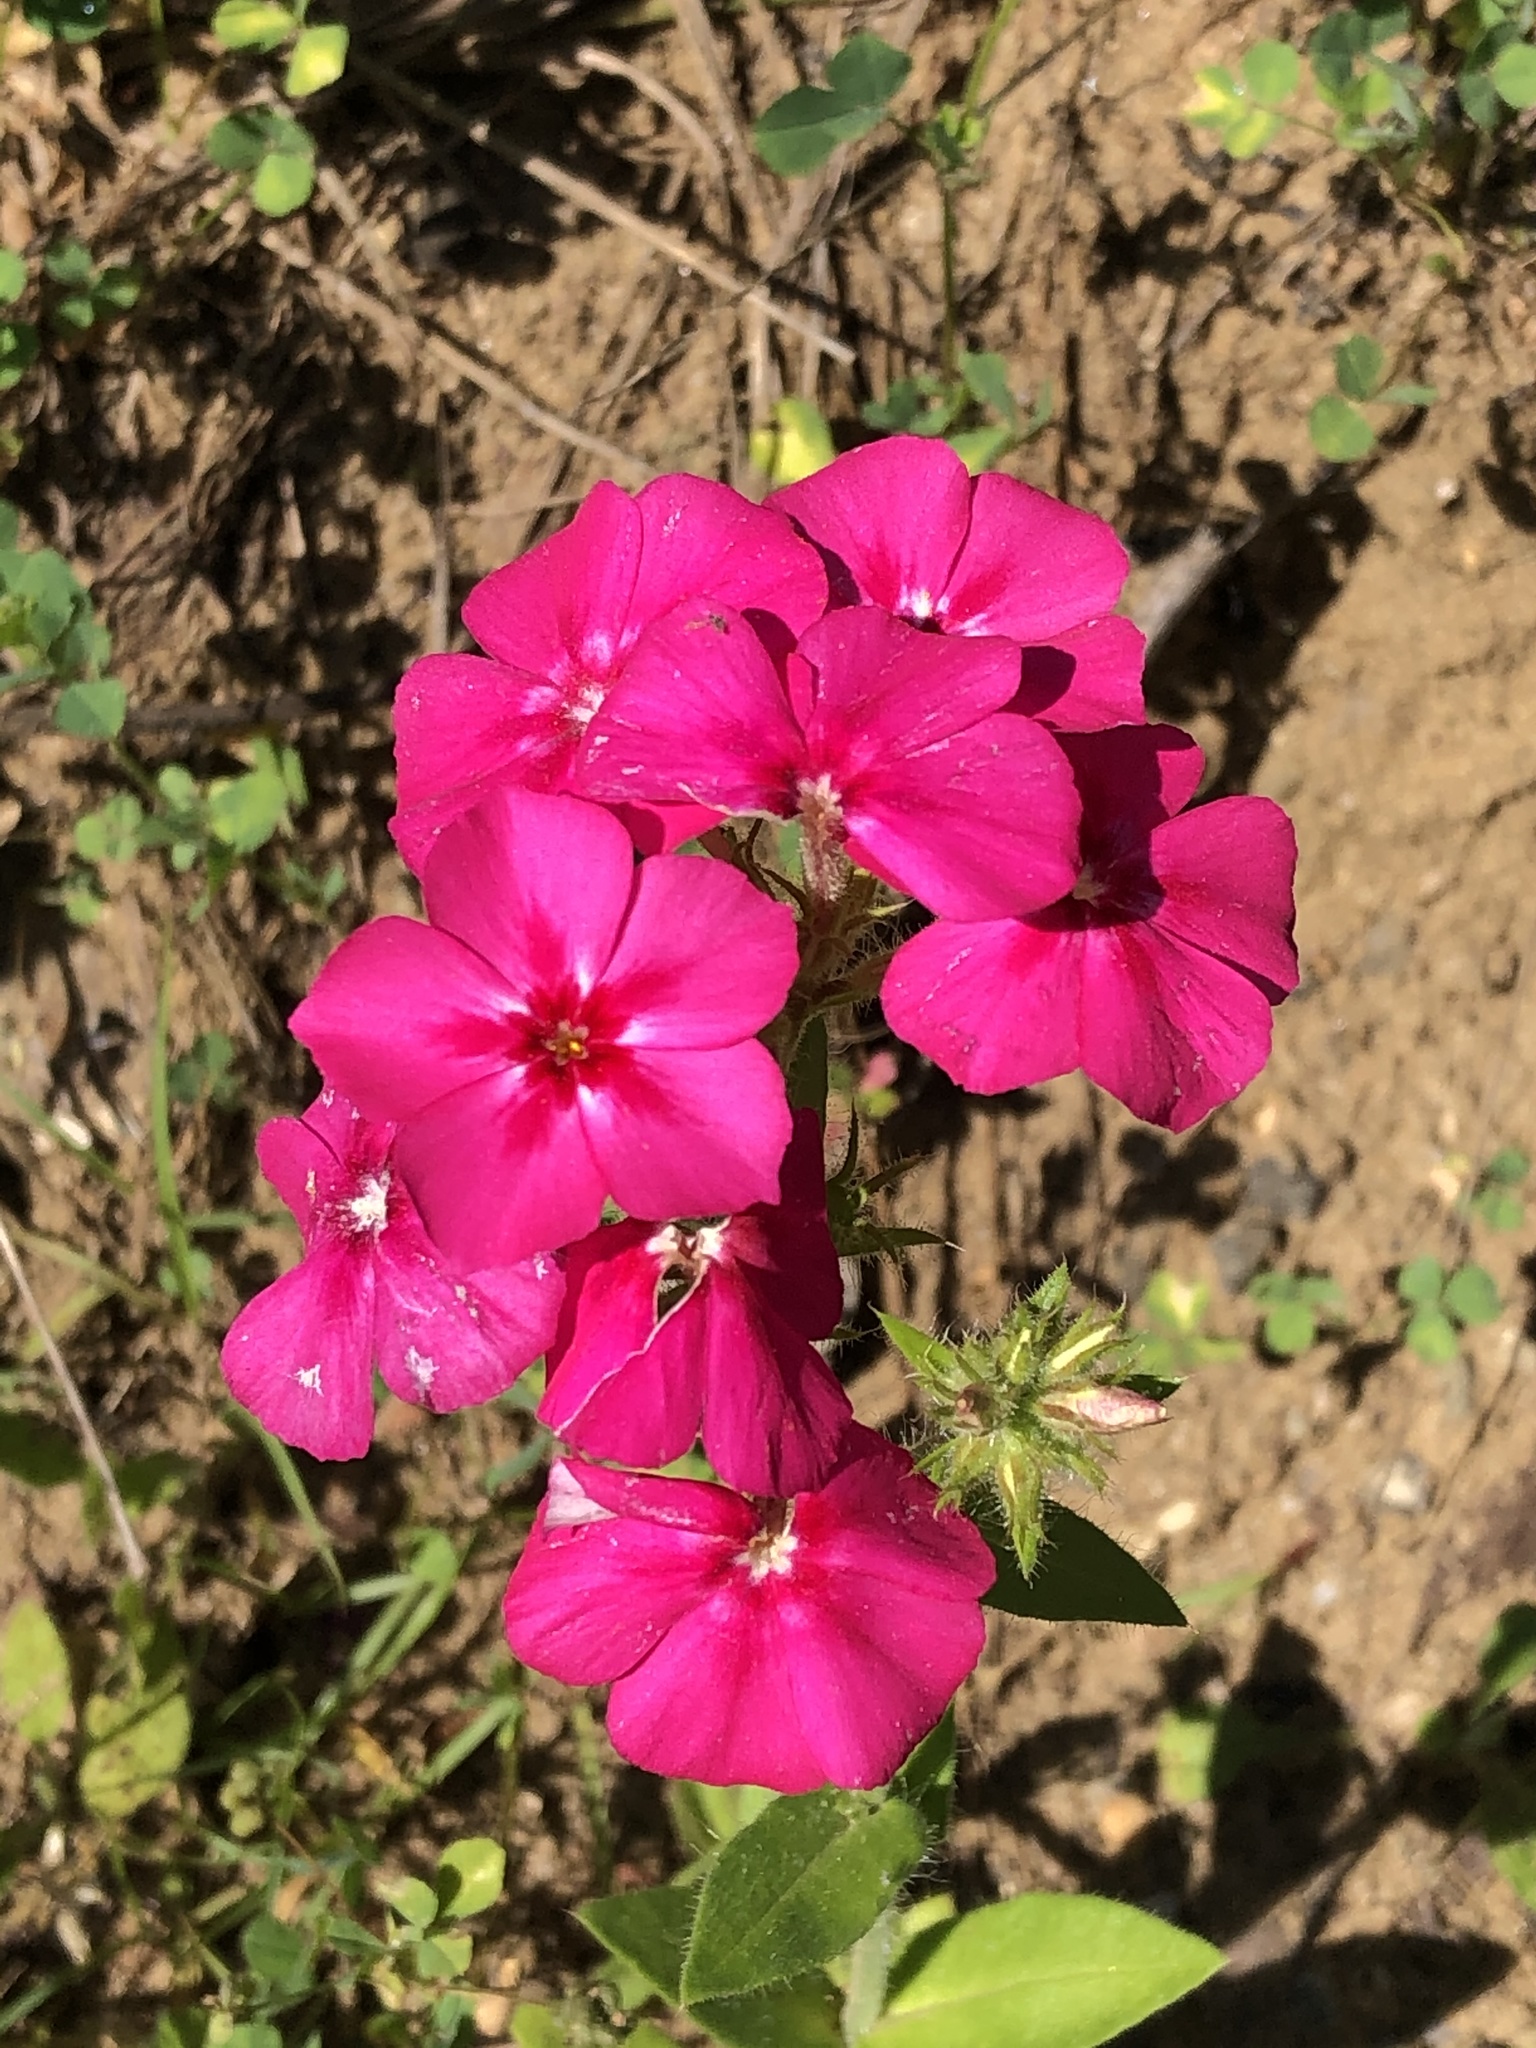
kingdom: Plantae
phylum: Tracheophyta
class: Magnoliopsida
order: Ericales
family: Polemoniaceae
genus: Phlox
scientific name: Phlox drummondii
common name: Drummond's phlox
